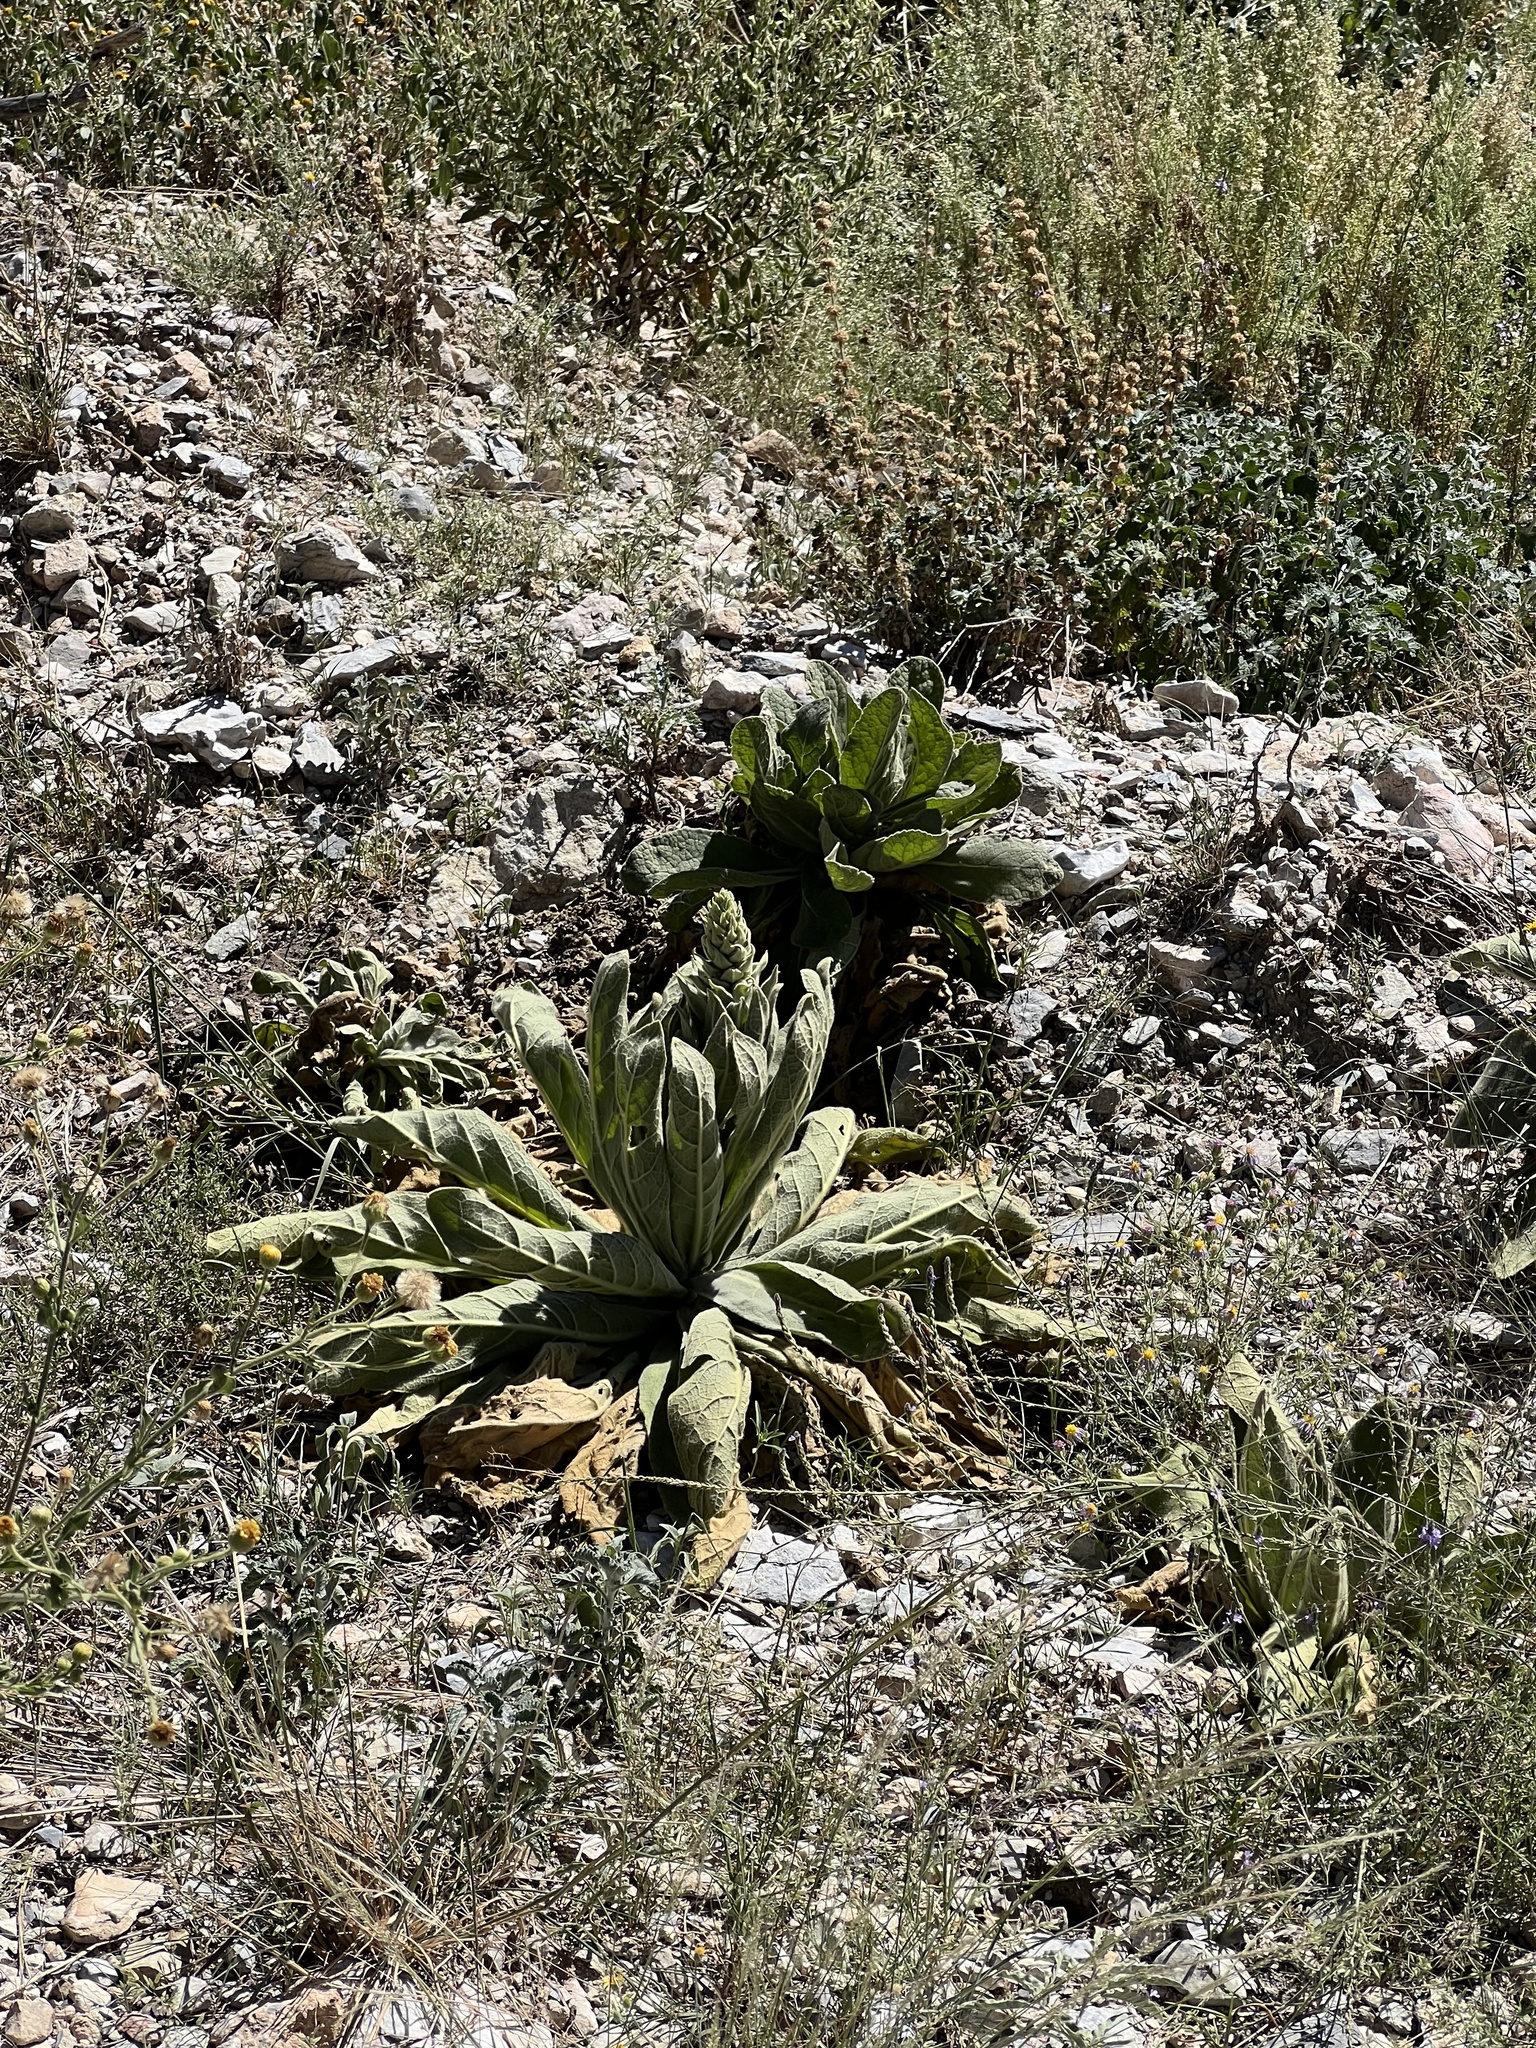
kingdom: Plantae
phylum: Tracheophyta
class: Magnoliopsida
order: Lamiales
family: Scrophulariaceae
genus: Verbascum
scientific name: Verbascum thapsus
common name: Common mullein
